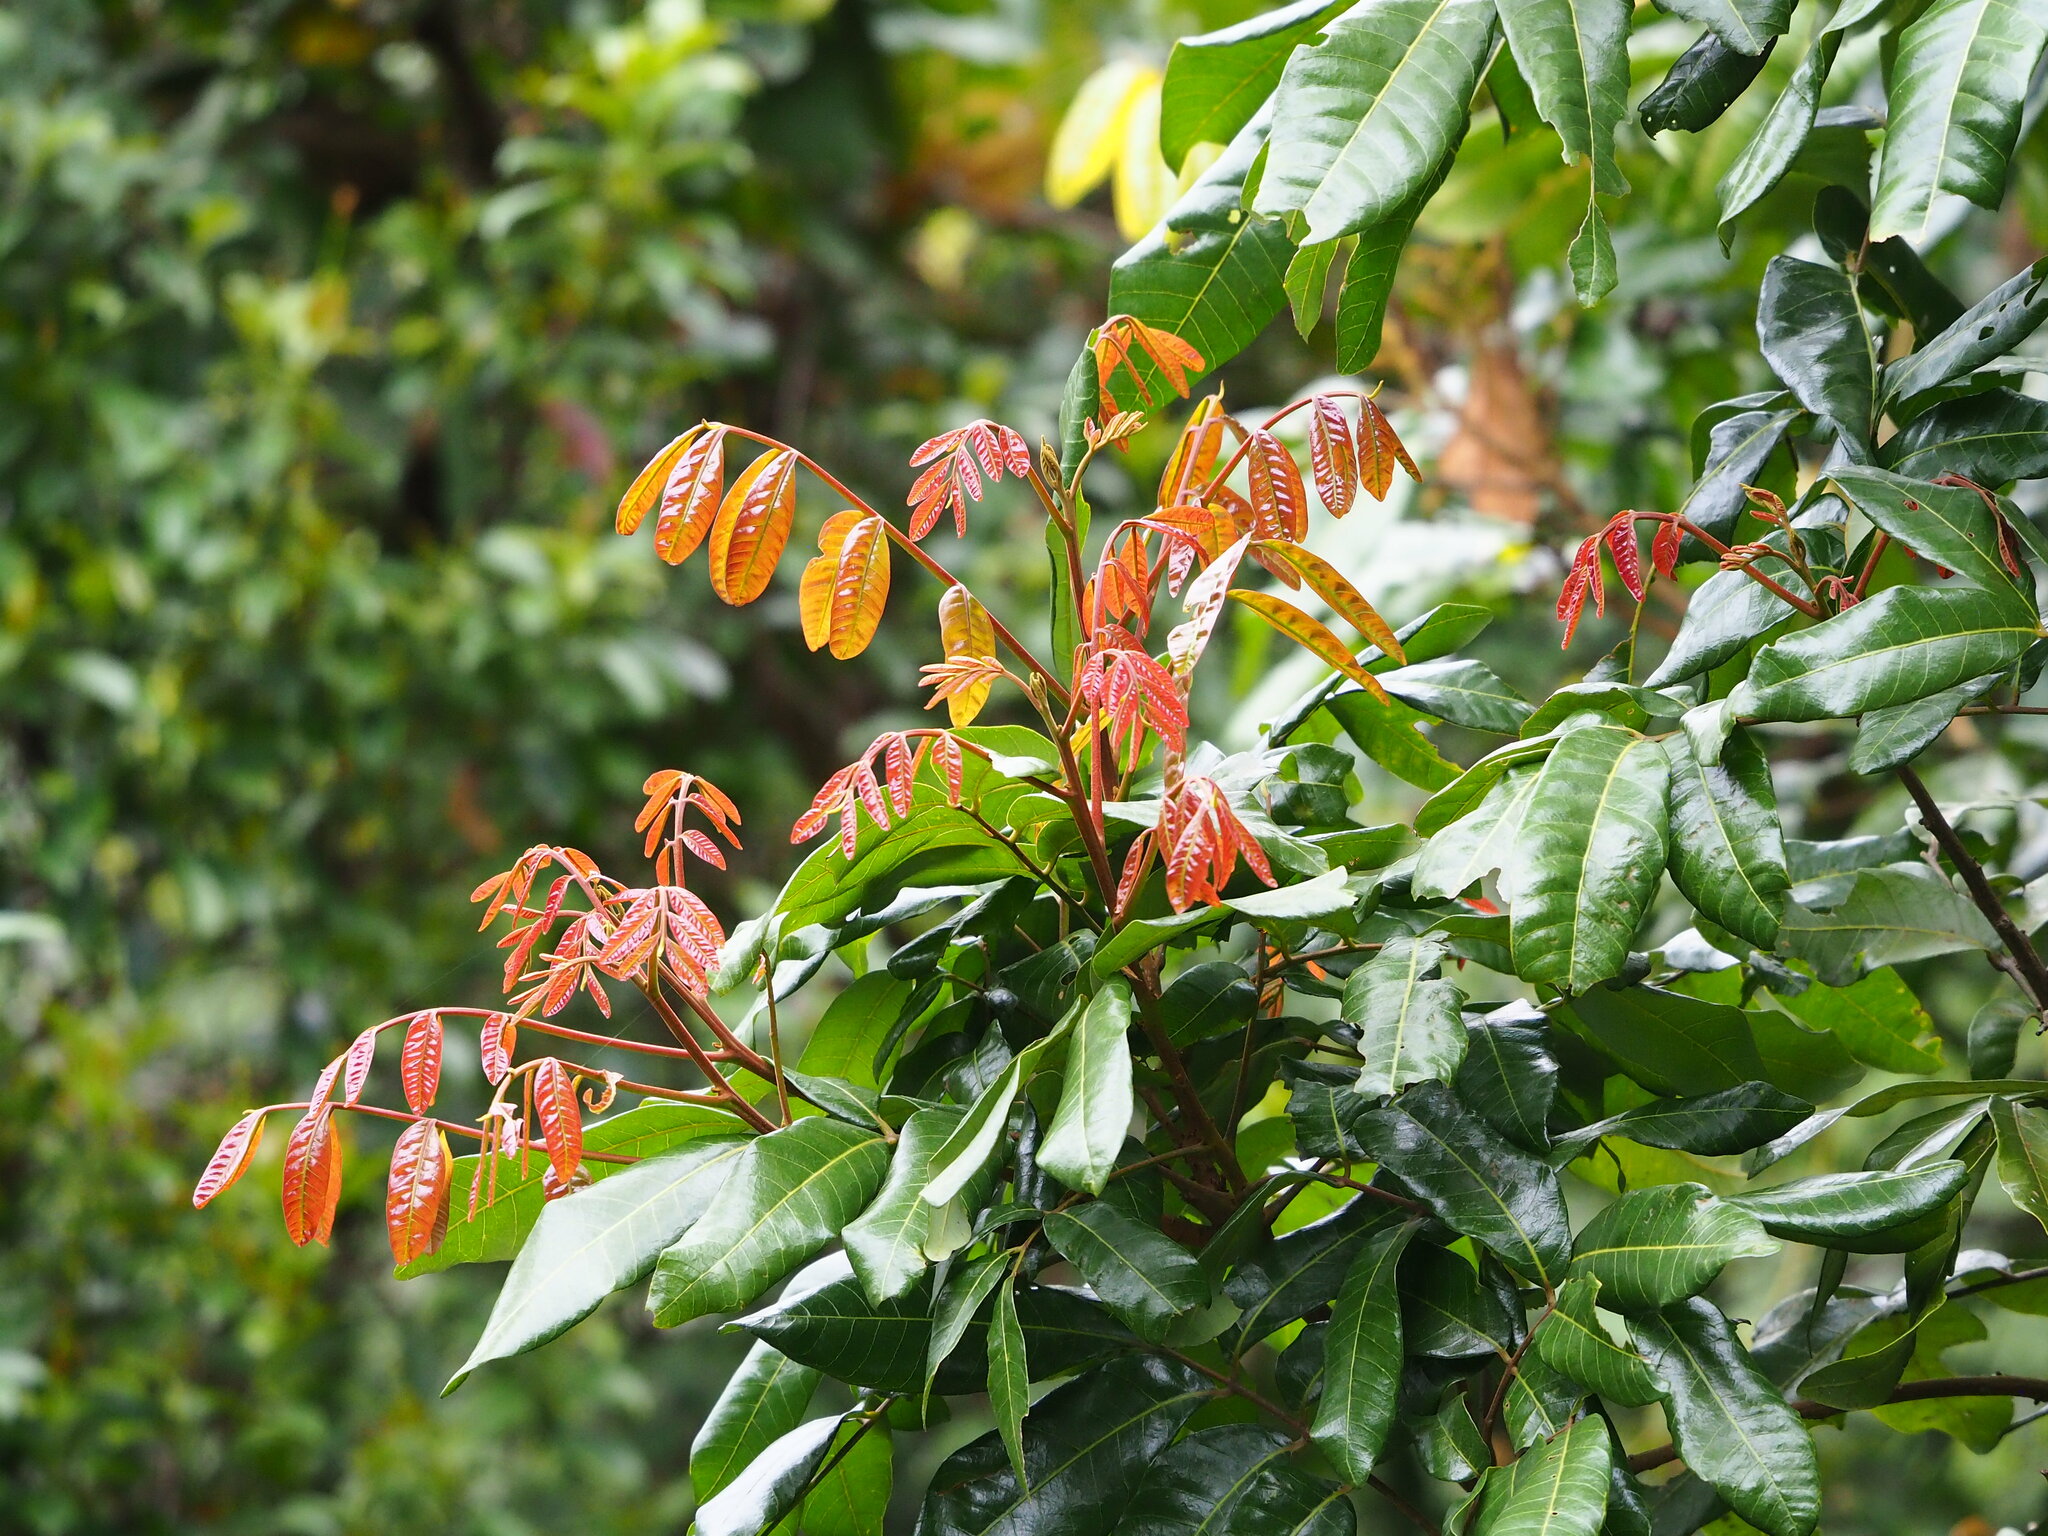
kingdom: Plantae
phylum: Tracheophyta
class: Magnoliopsida
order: Sapindales
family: Sapindaceae
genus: Dimocarpus
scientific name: Dimocarpus longan
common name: Longan
